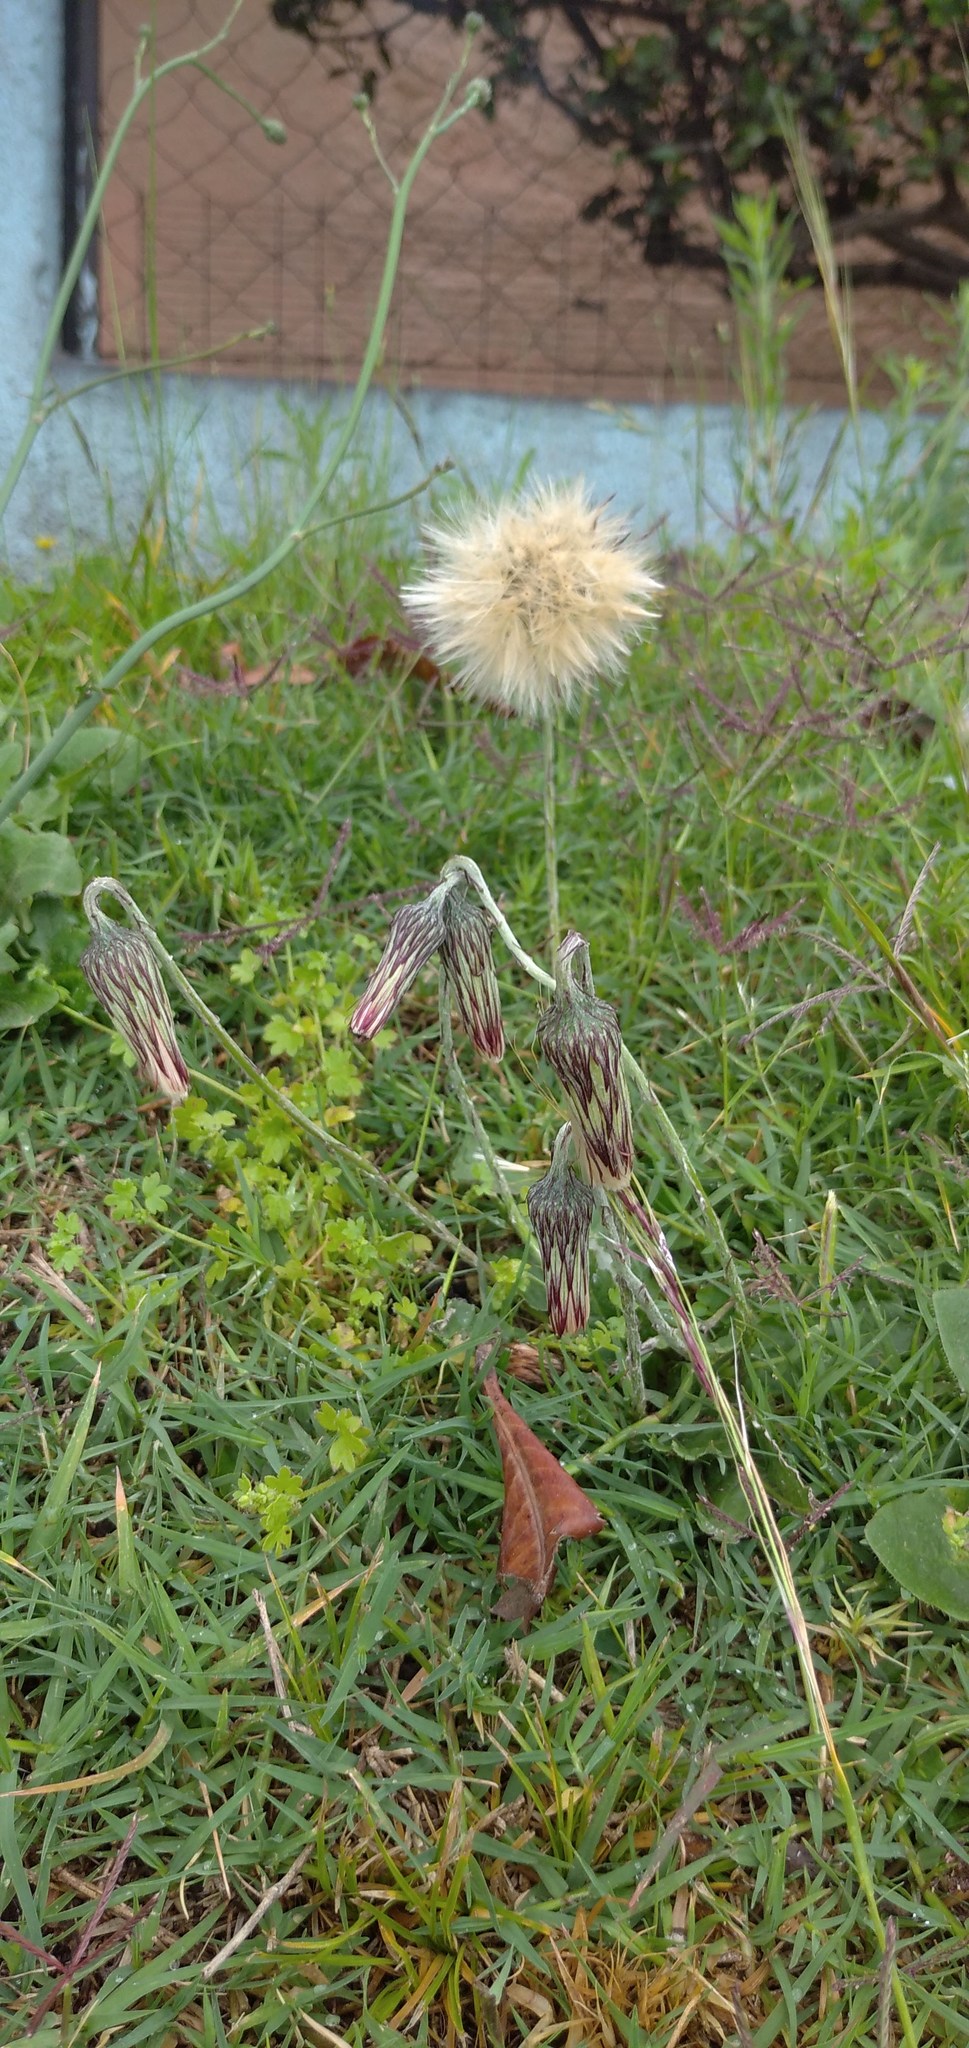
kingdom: Plantae
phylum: Tracheophyta
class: Magnoliopsida
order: Asterales
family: Asteraceae
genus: Chaptalia
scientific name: Chaptalia arechavaletae
